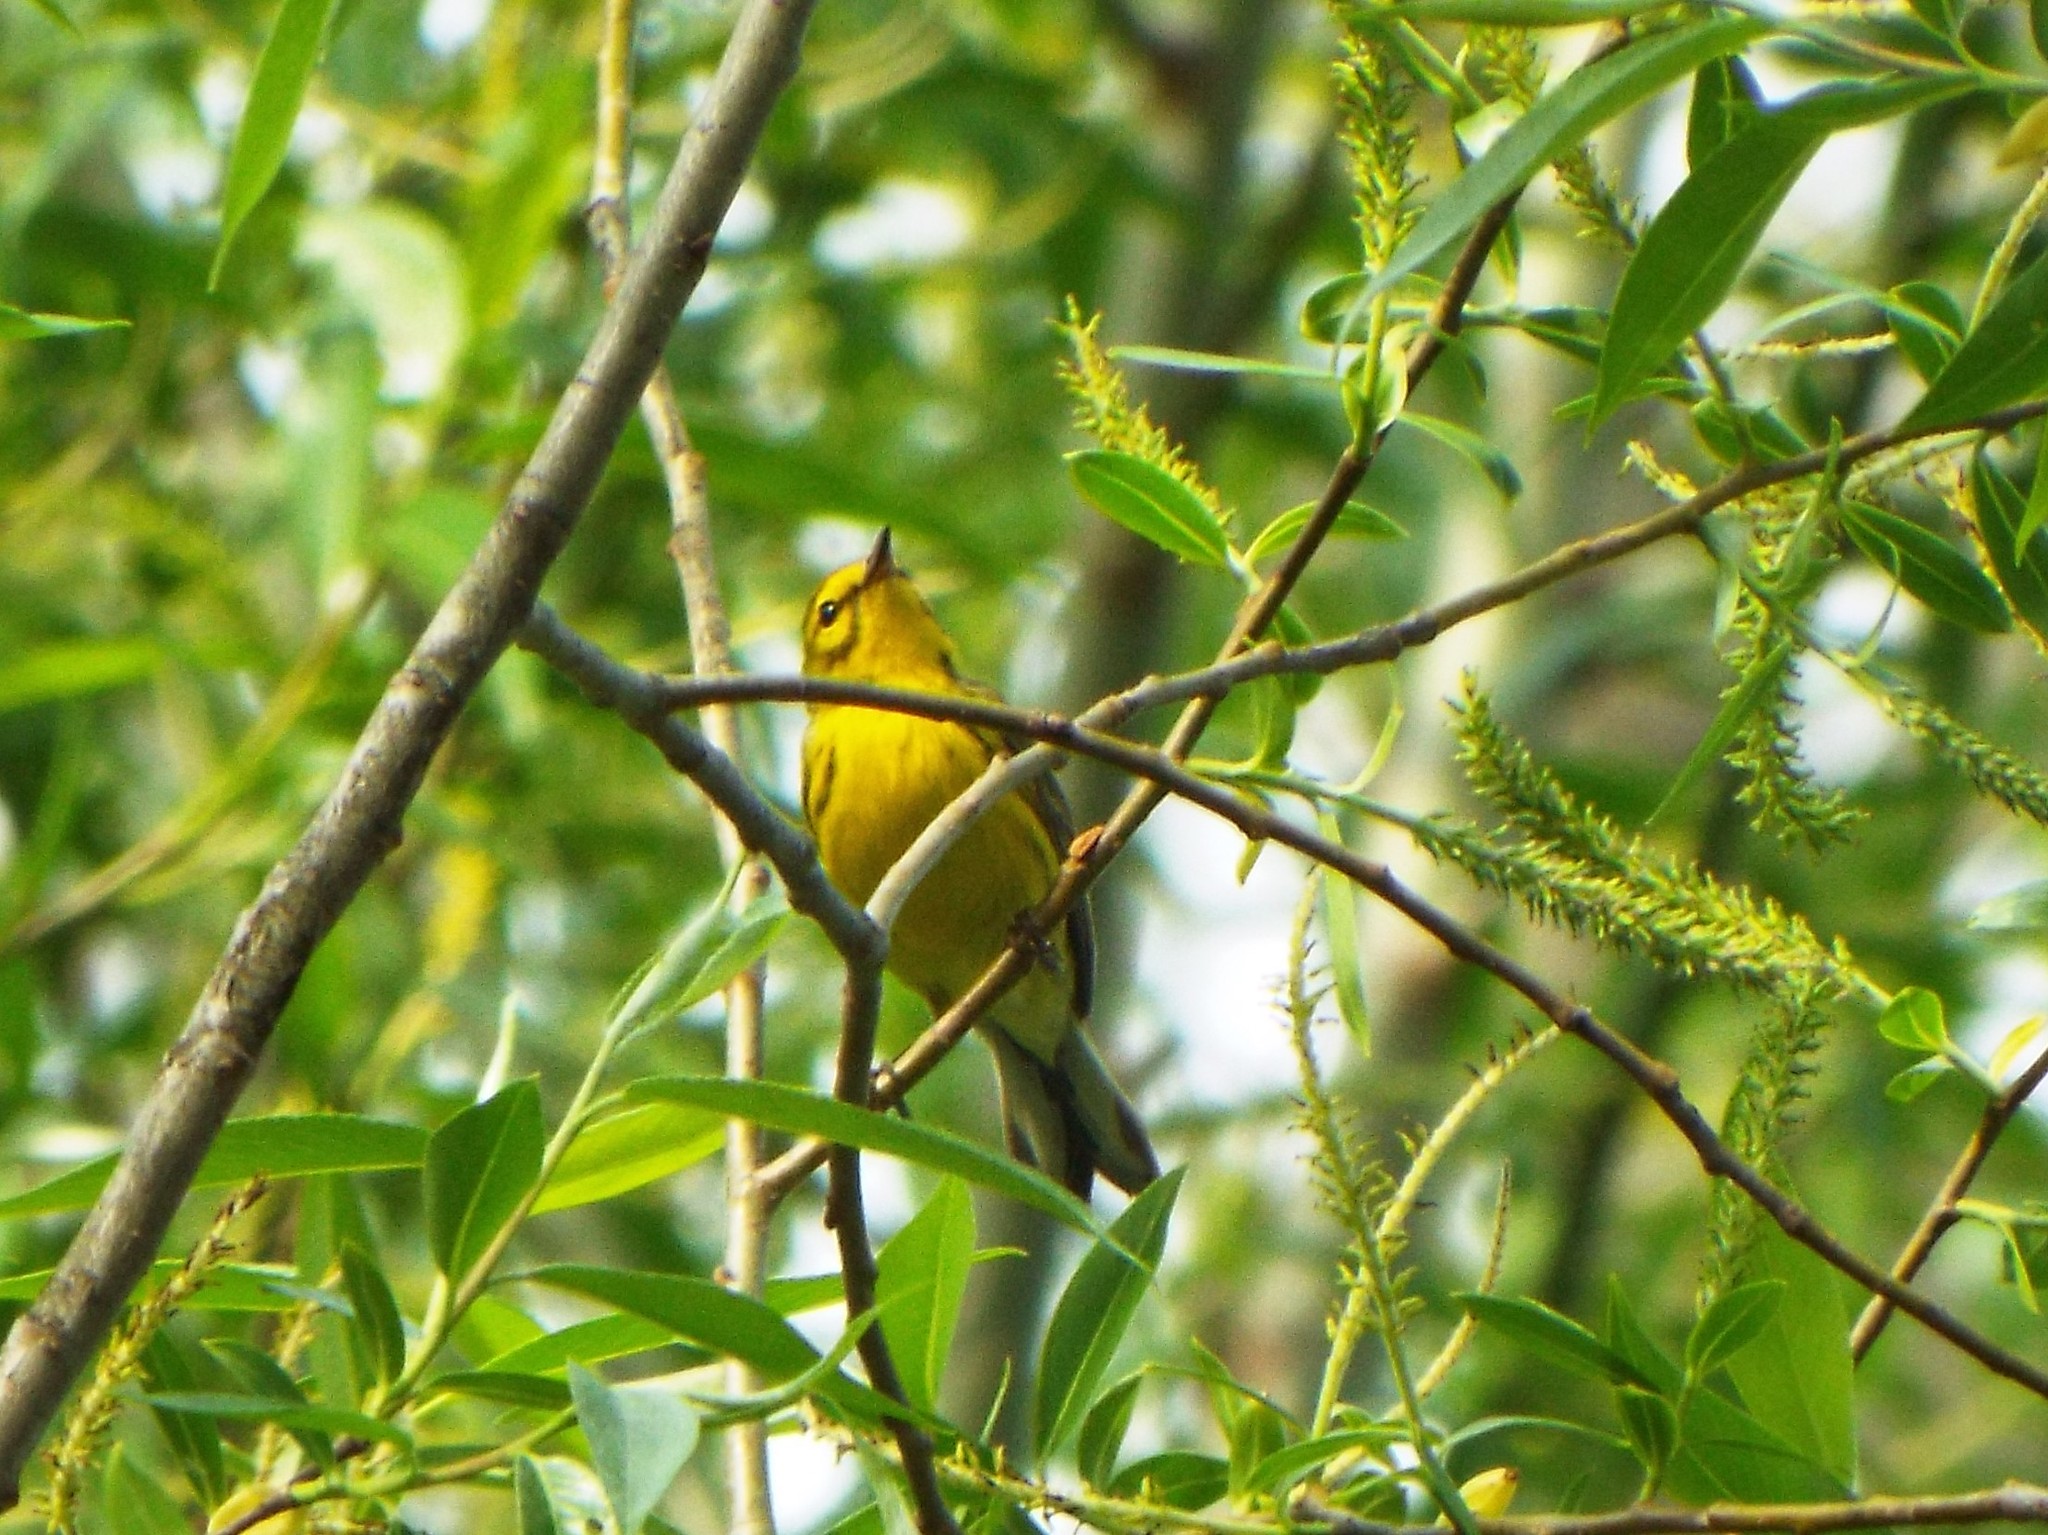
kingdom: Animalia
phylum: Chordata
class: Aves
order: Passeriformes
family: Parulidae
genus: Setophaga
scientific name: Setophaga discolor
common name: Prairie warbler
